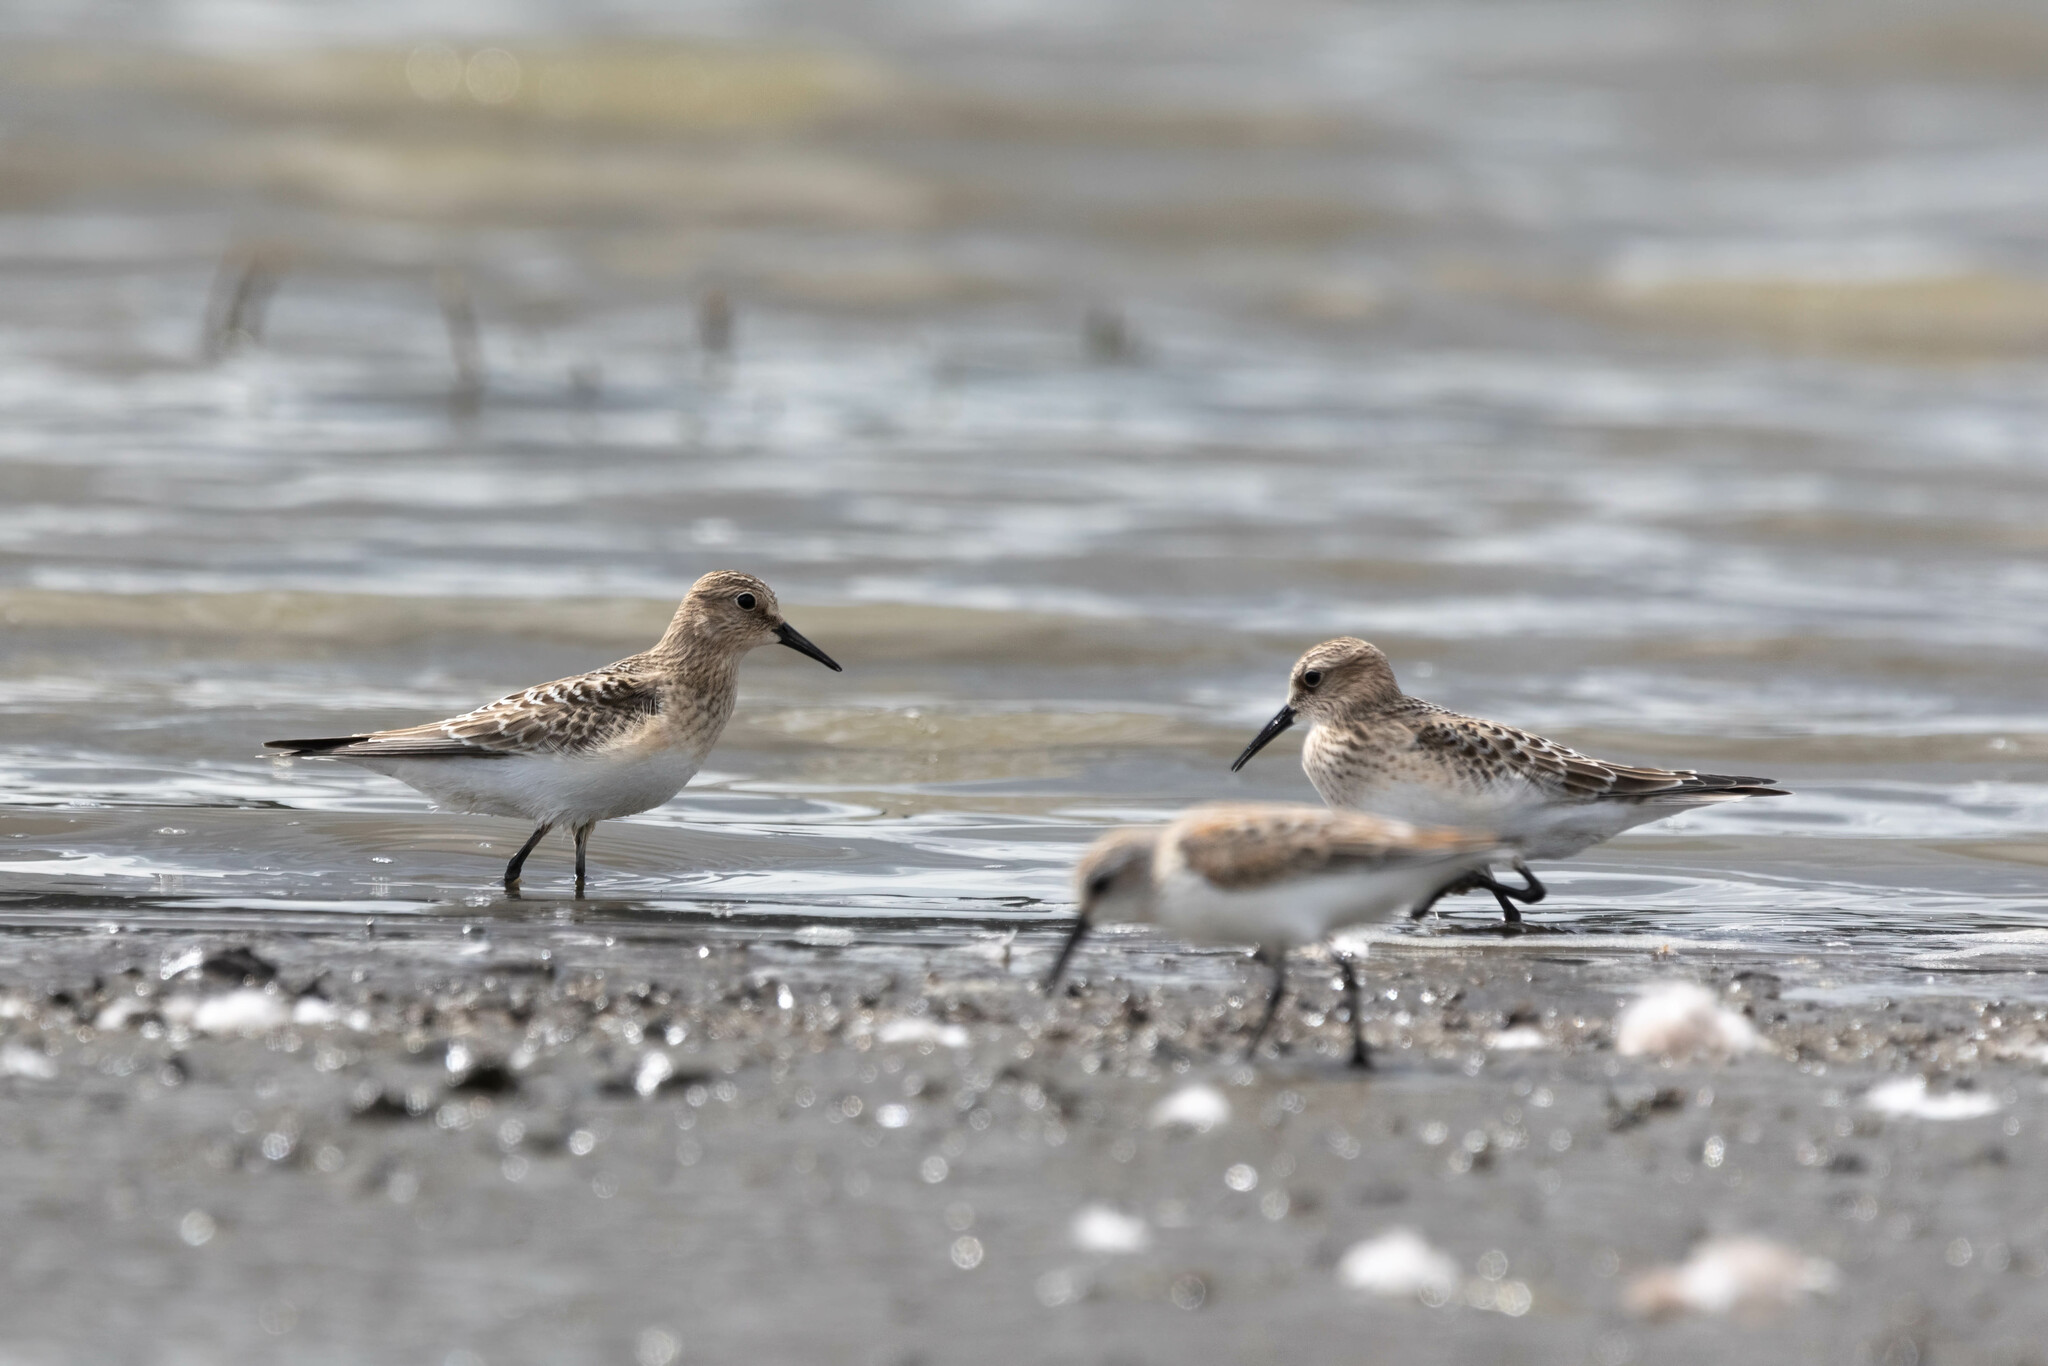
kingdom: Animalia
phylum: Chordata
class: Aves
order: Charadriiformes
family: Scolopacidae
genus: Calidris
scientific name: Calidris bairdii
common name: Baird's sandpiper
